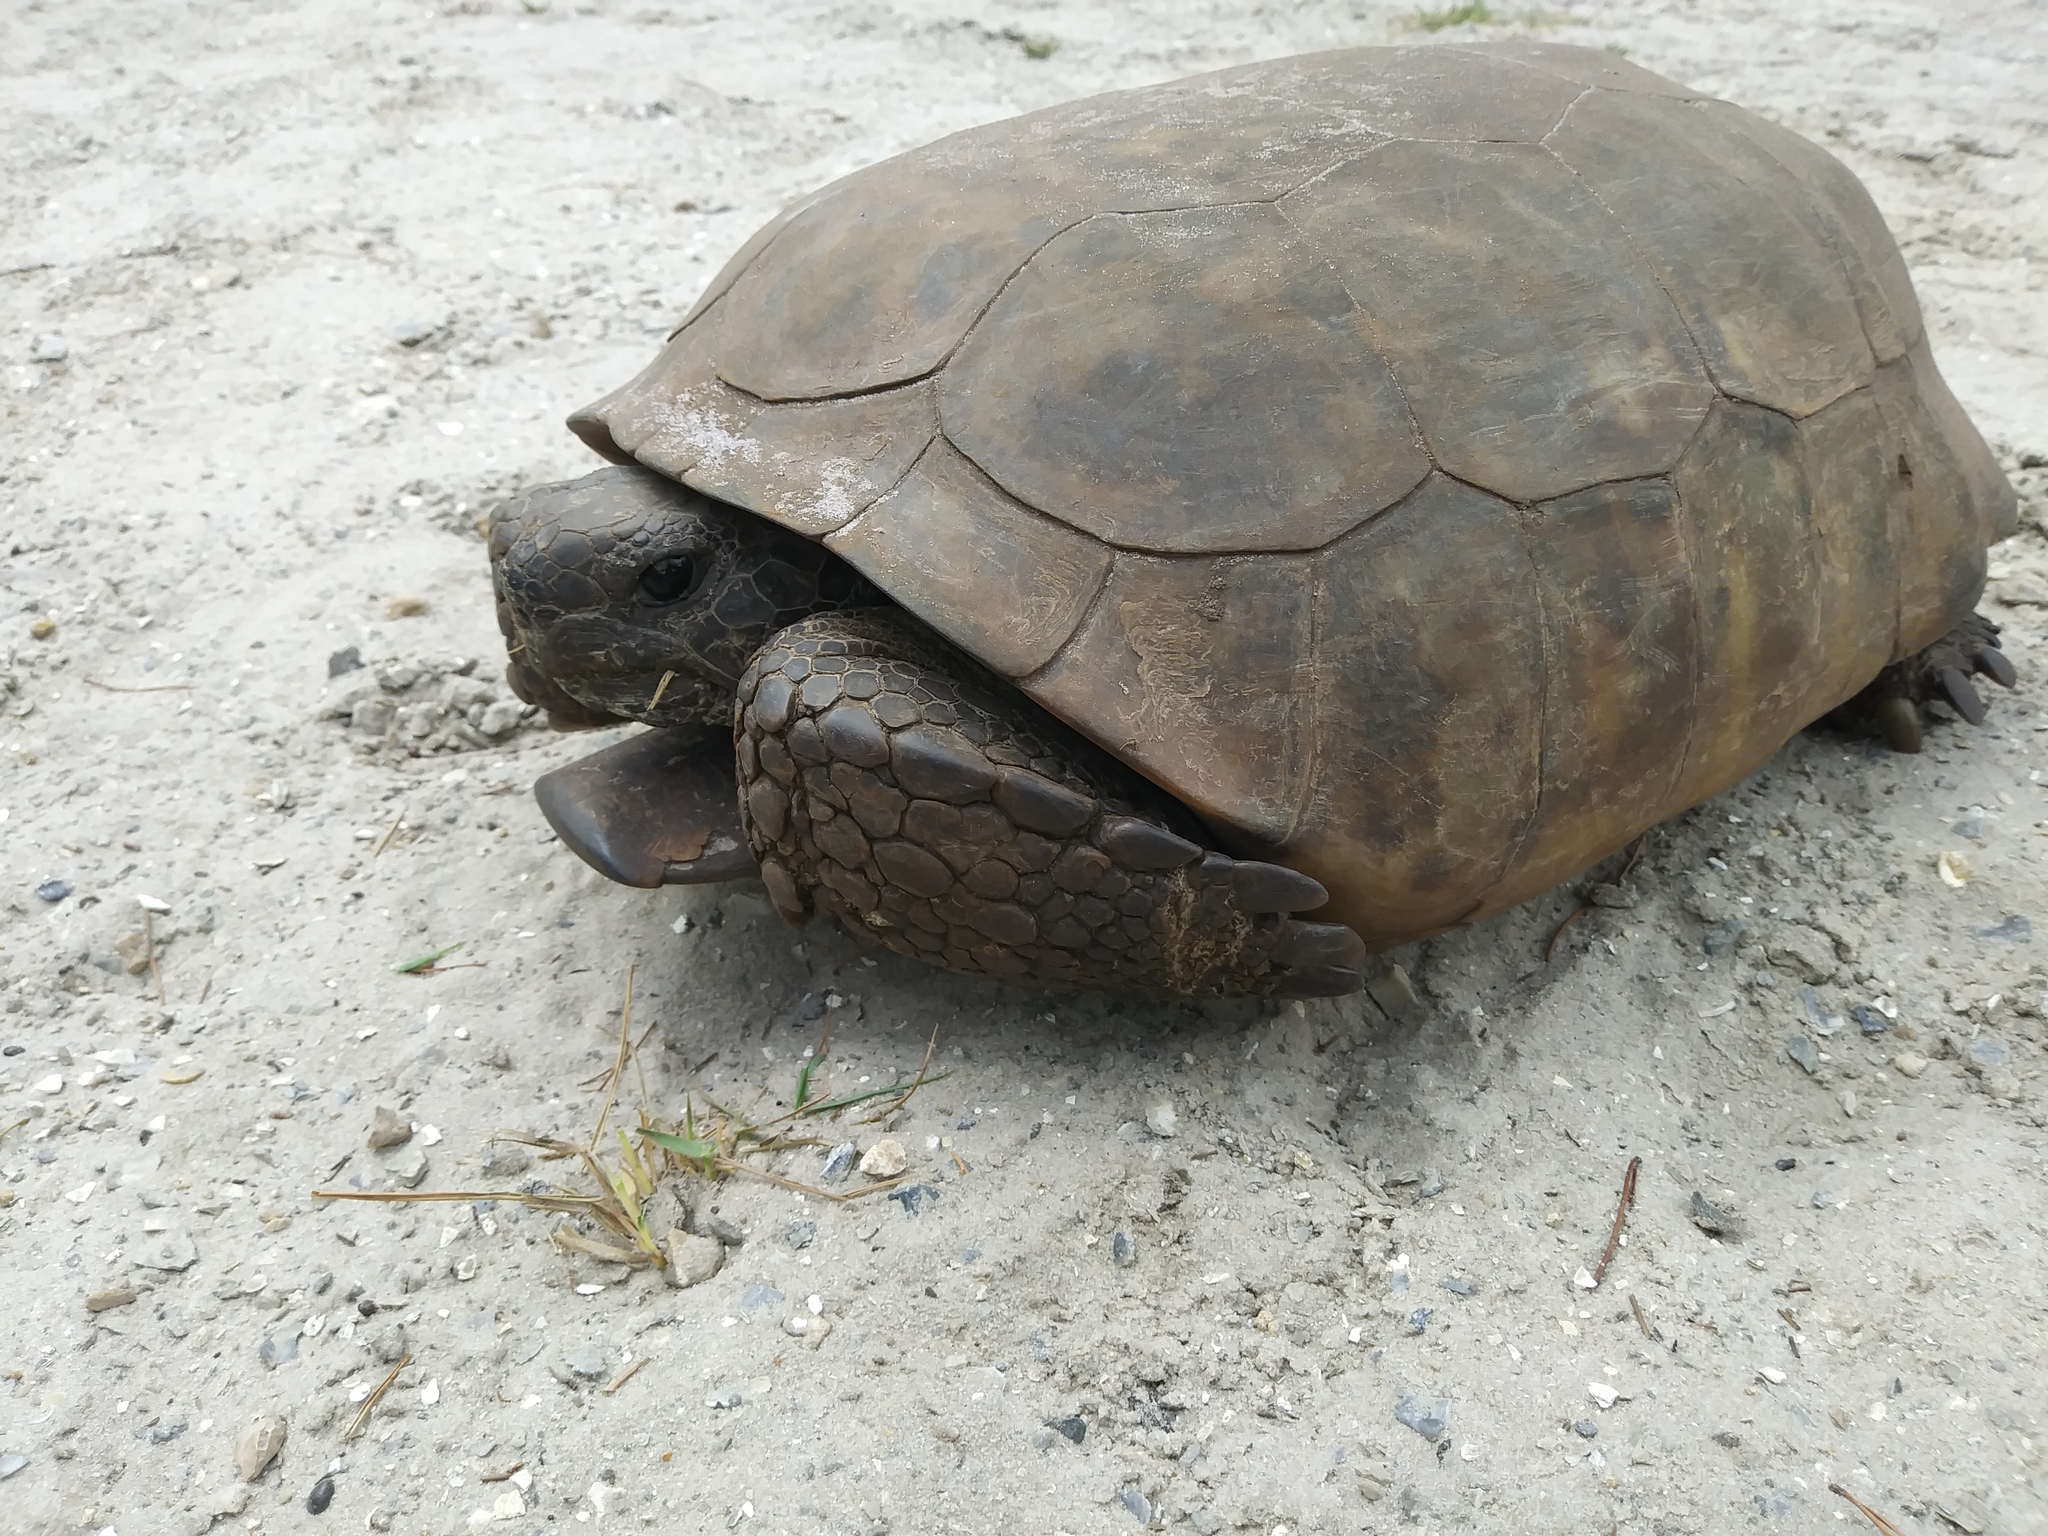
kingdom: Animalia
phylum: Chordata
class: Testudines
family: Testudinidae
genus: Gopherus
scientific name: Gopherus polyphemus
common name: Florida gopher tortoise
